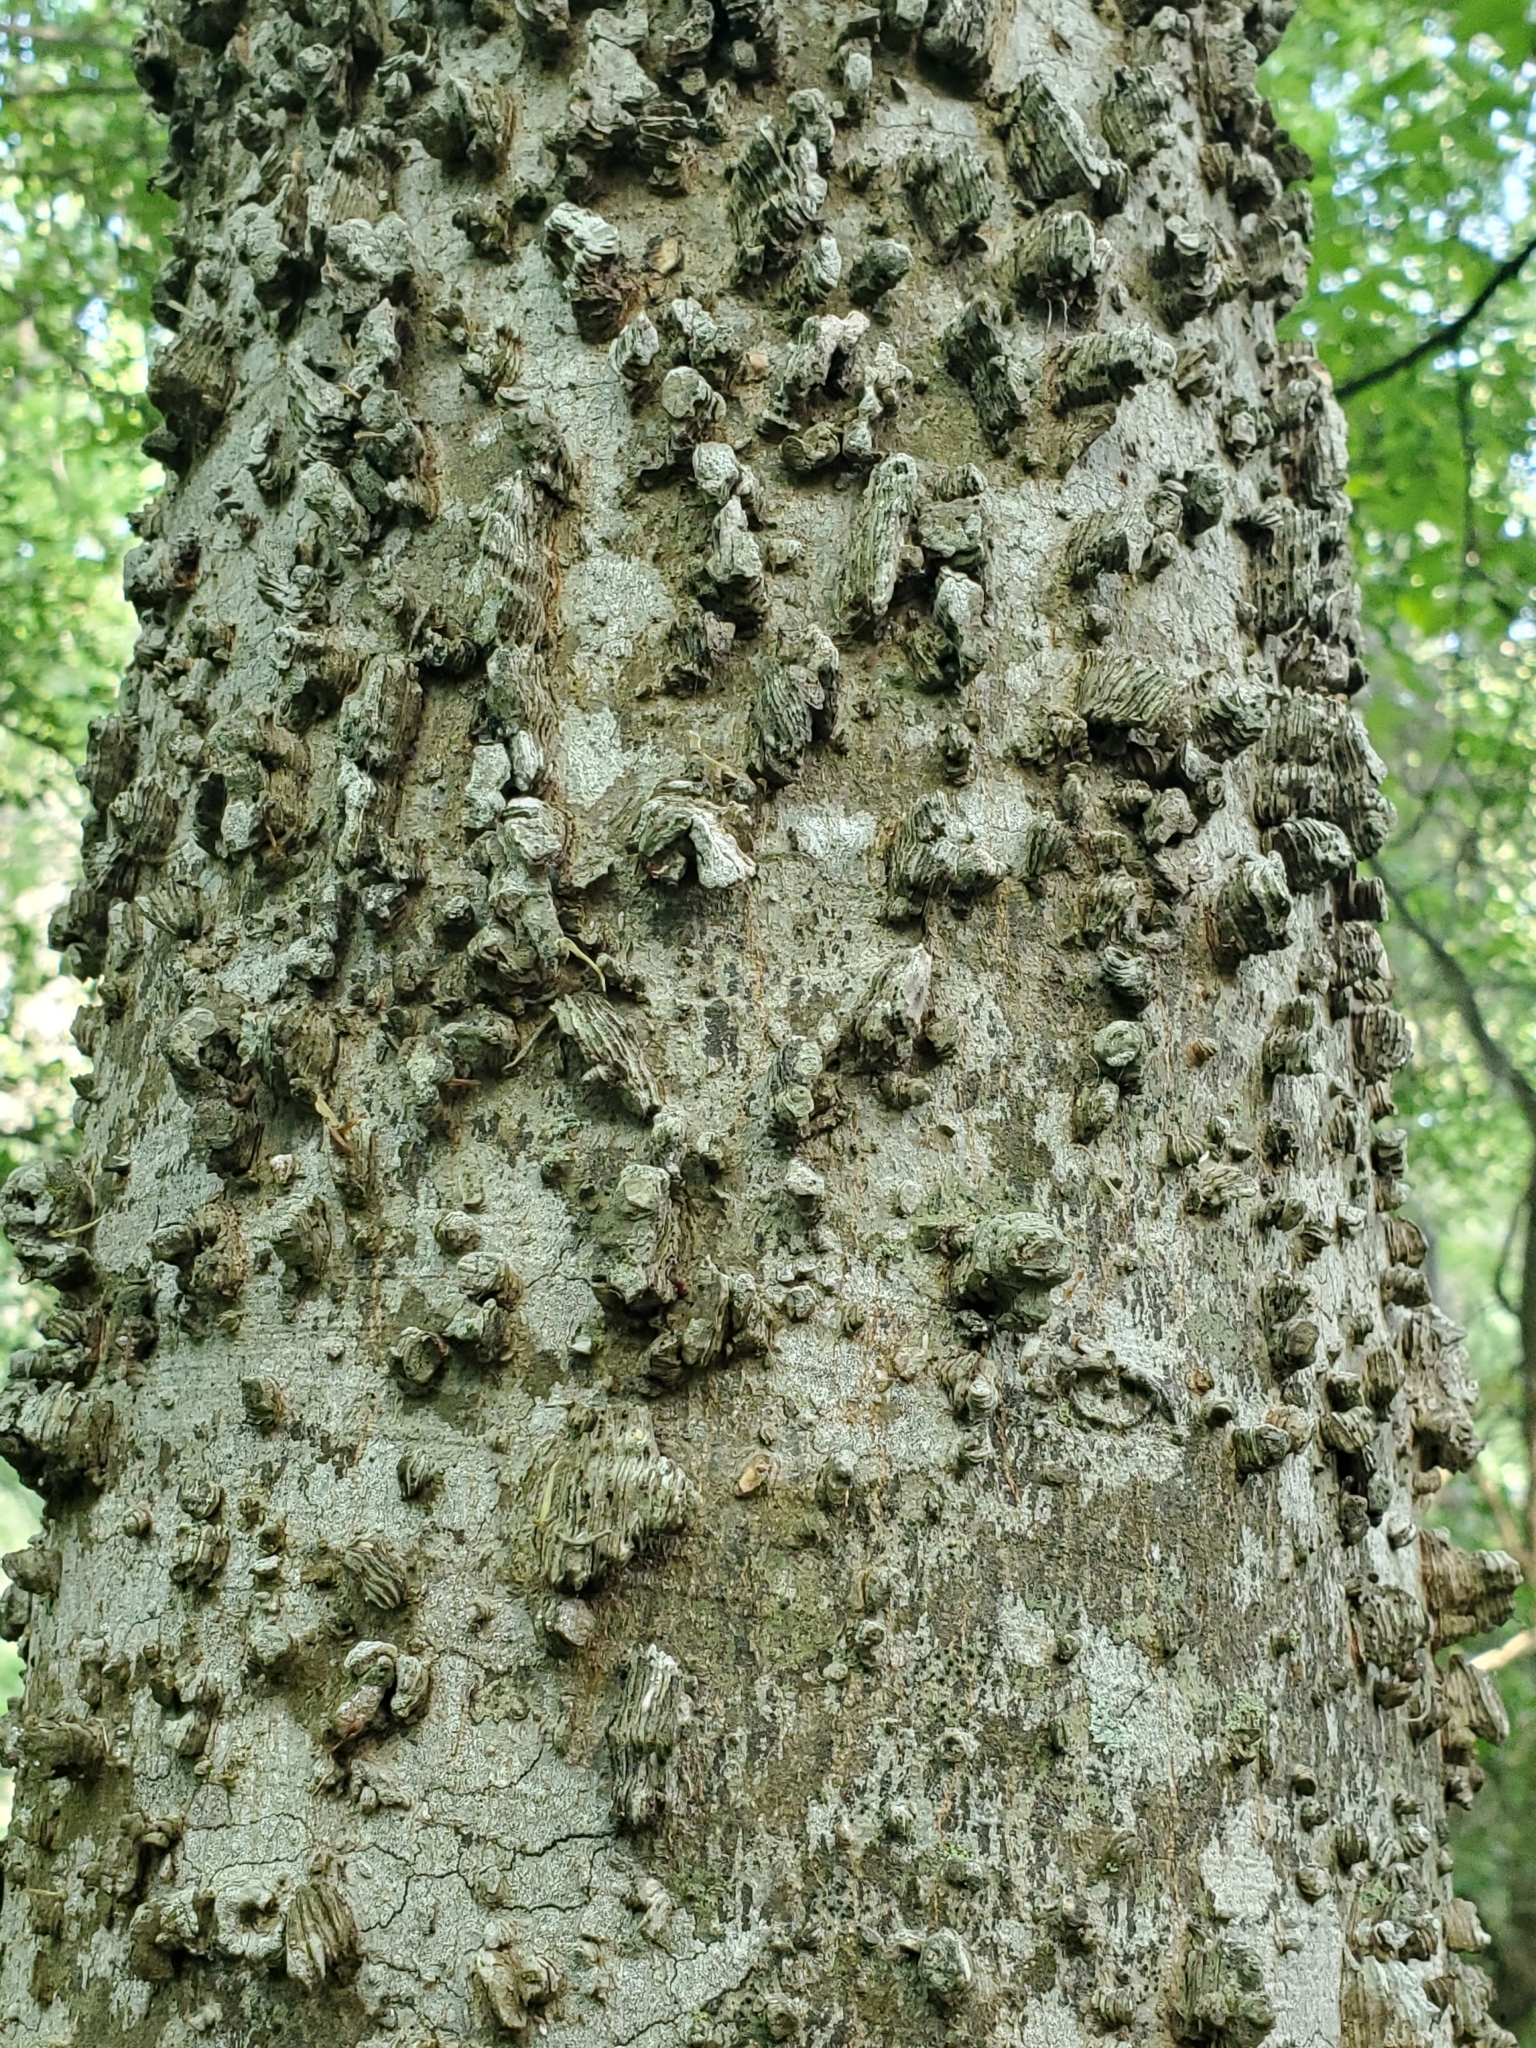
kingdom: Plantae
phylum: Tracheophyta
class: Magnoliopsida
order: Rosales
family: Cannabaceae
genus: Celtis
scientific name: Celtis laevigata
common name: Sugarberry
